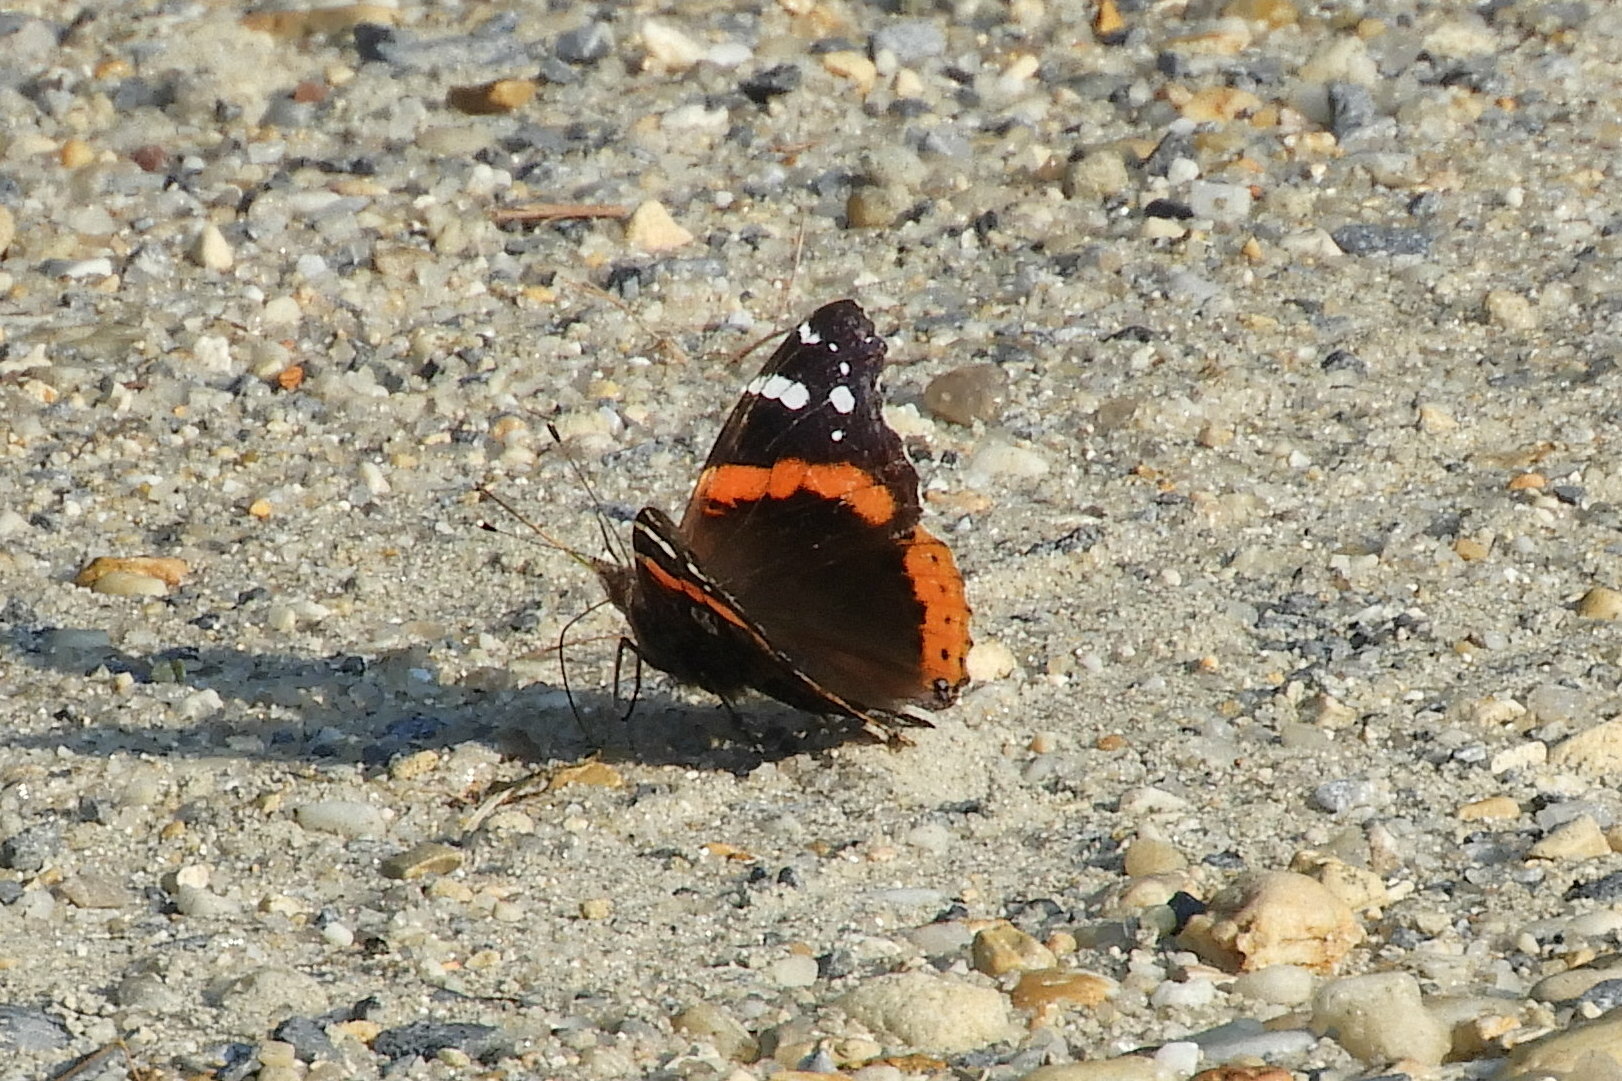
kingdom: Animalia
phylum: Arthropoda
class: Insecta
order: Lepidoptera
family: Nymphalidae
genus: Vanessa
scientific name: Vanessa atalanta
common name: Red admiral
